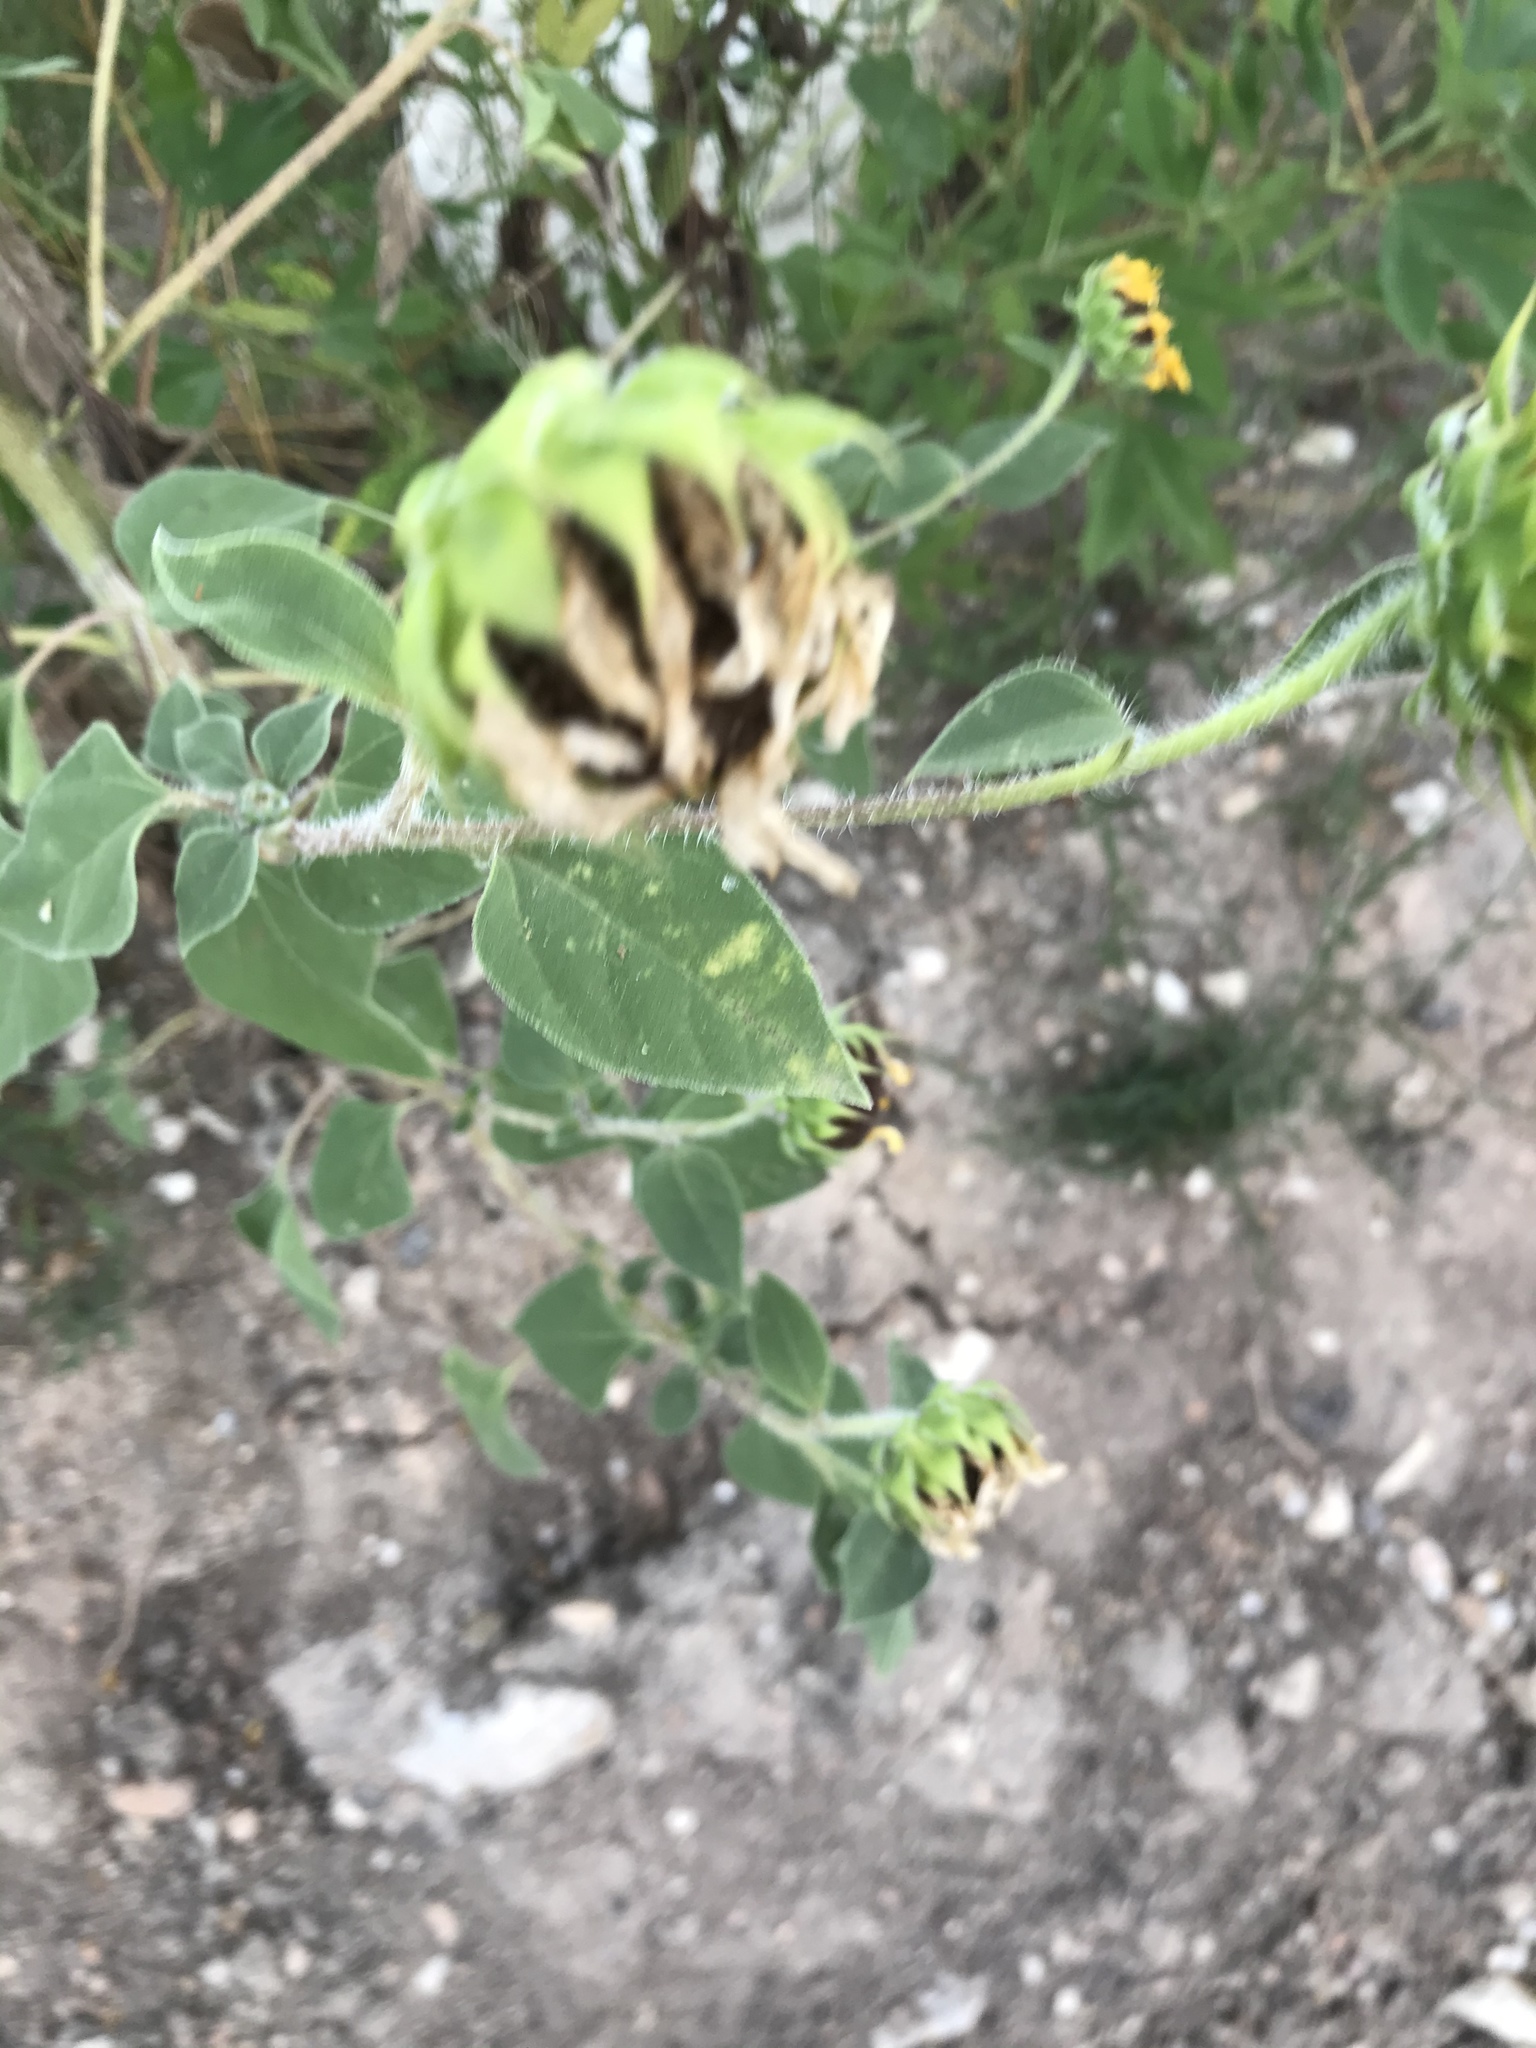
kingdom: Plantae
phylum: Tracheophyta
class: Magnoliopsida
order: Asterales
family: Asteraceae
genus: Helianthus
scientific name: Helianthus annuus
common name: Sunflower
